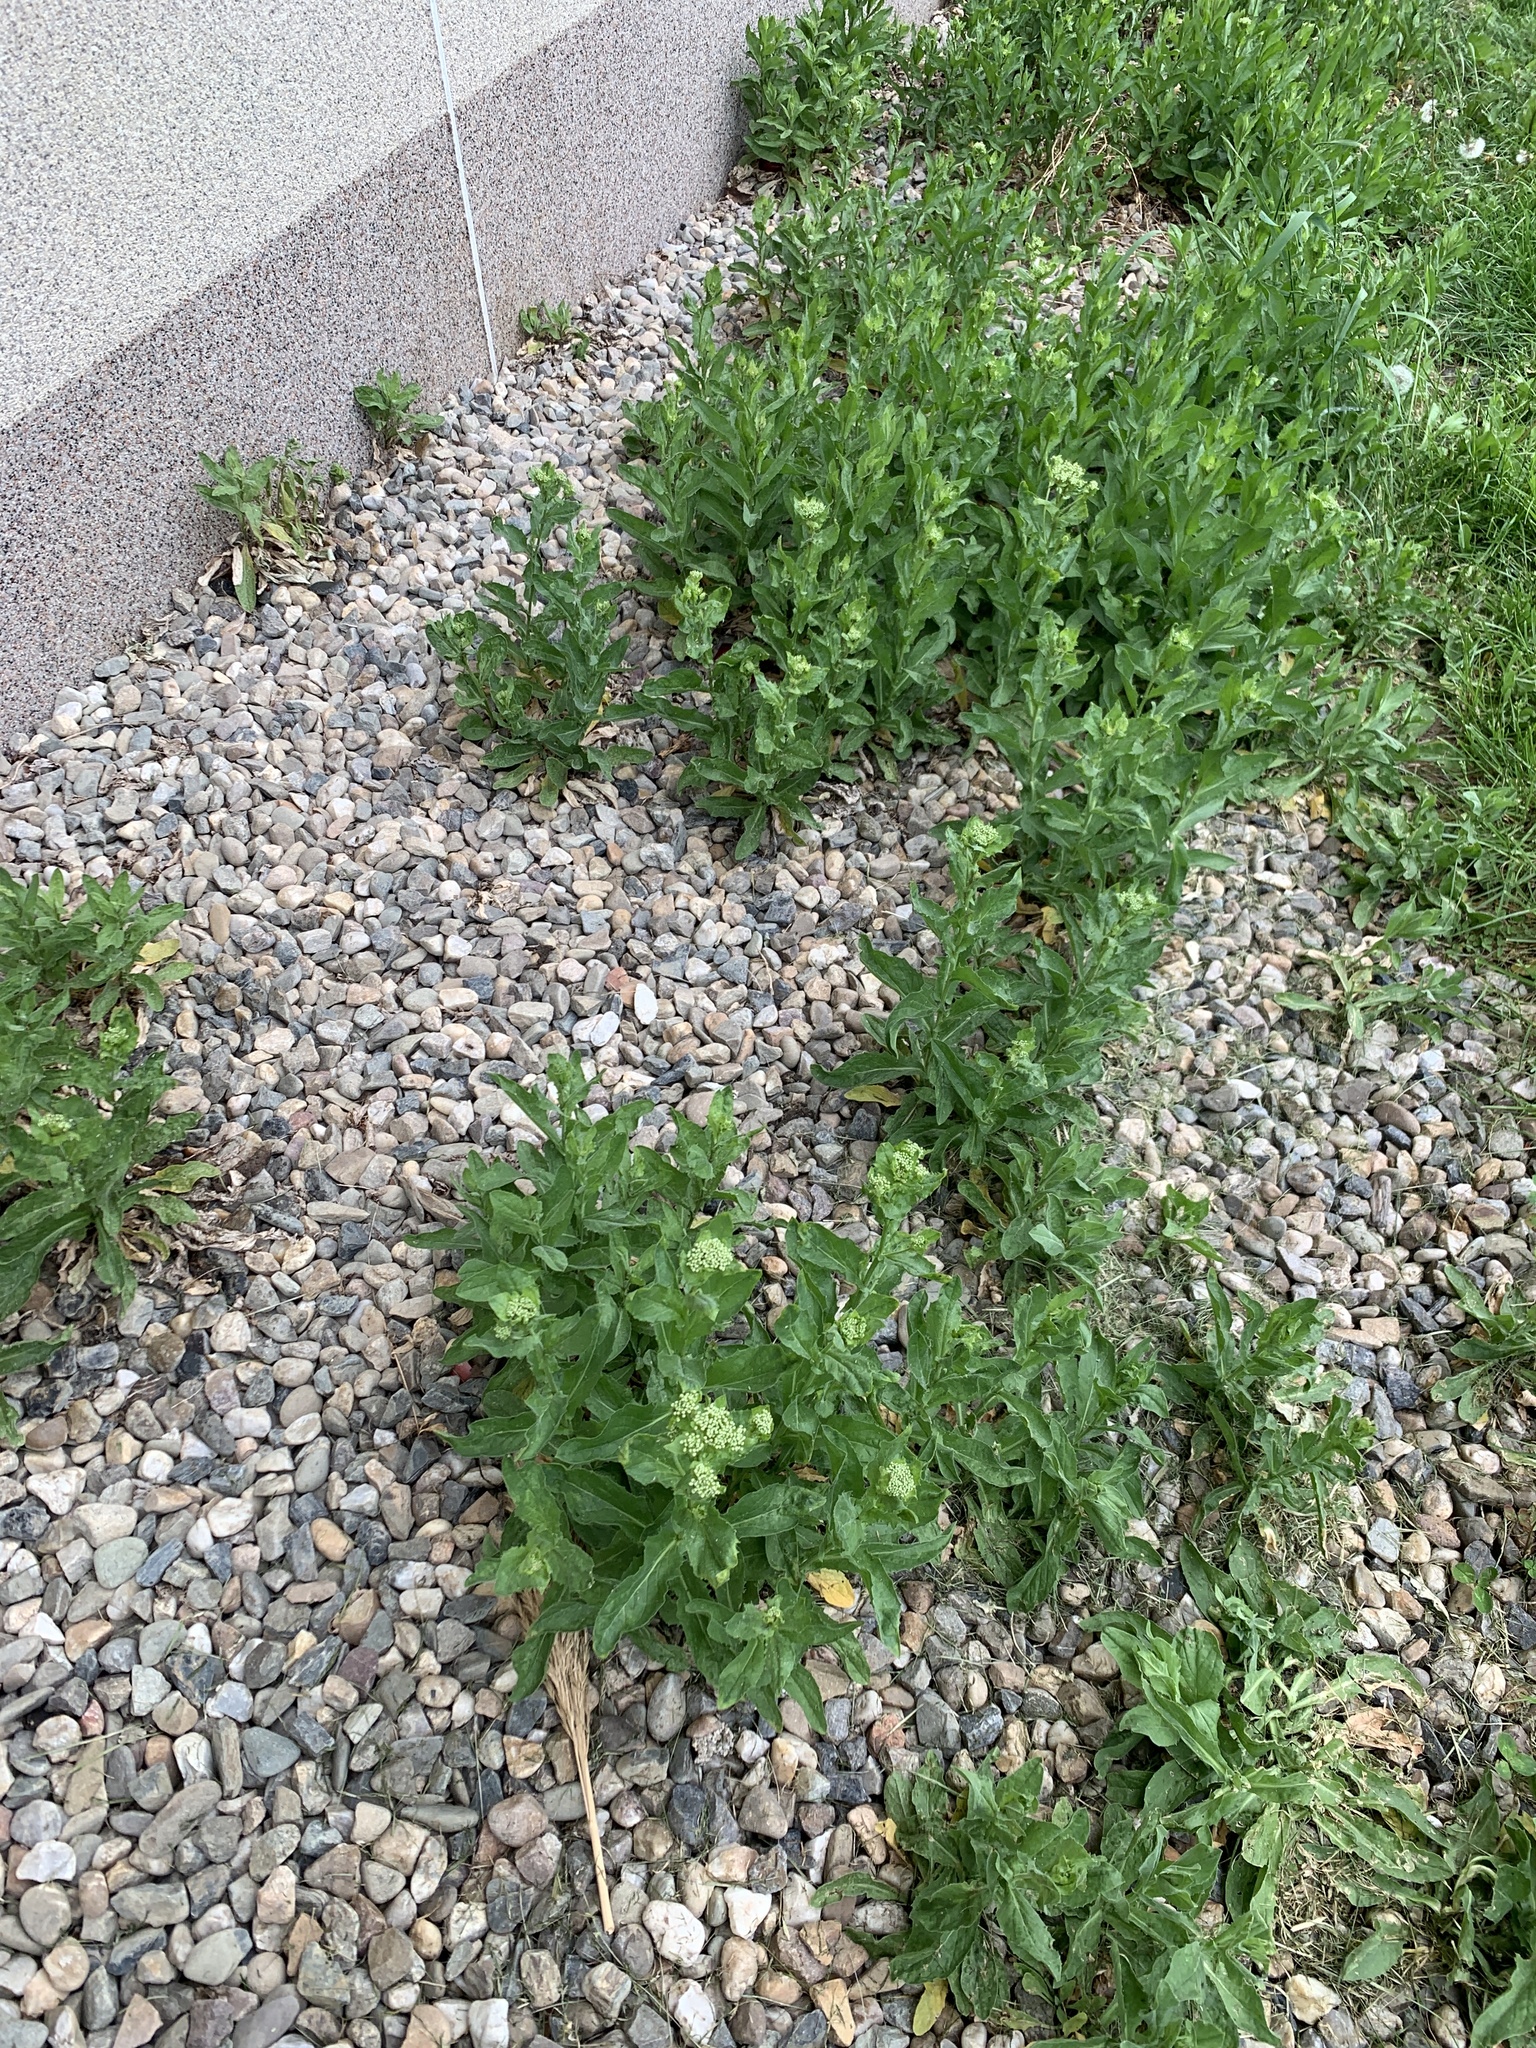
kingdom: Plantae
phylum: Tracheophyta
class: Magnoliopsida
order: Brassicales
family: Brassicaceae
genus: Lepidium
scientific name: Lepidium draba
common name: Hoary cress
